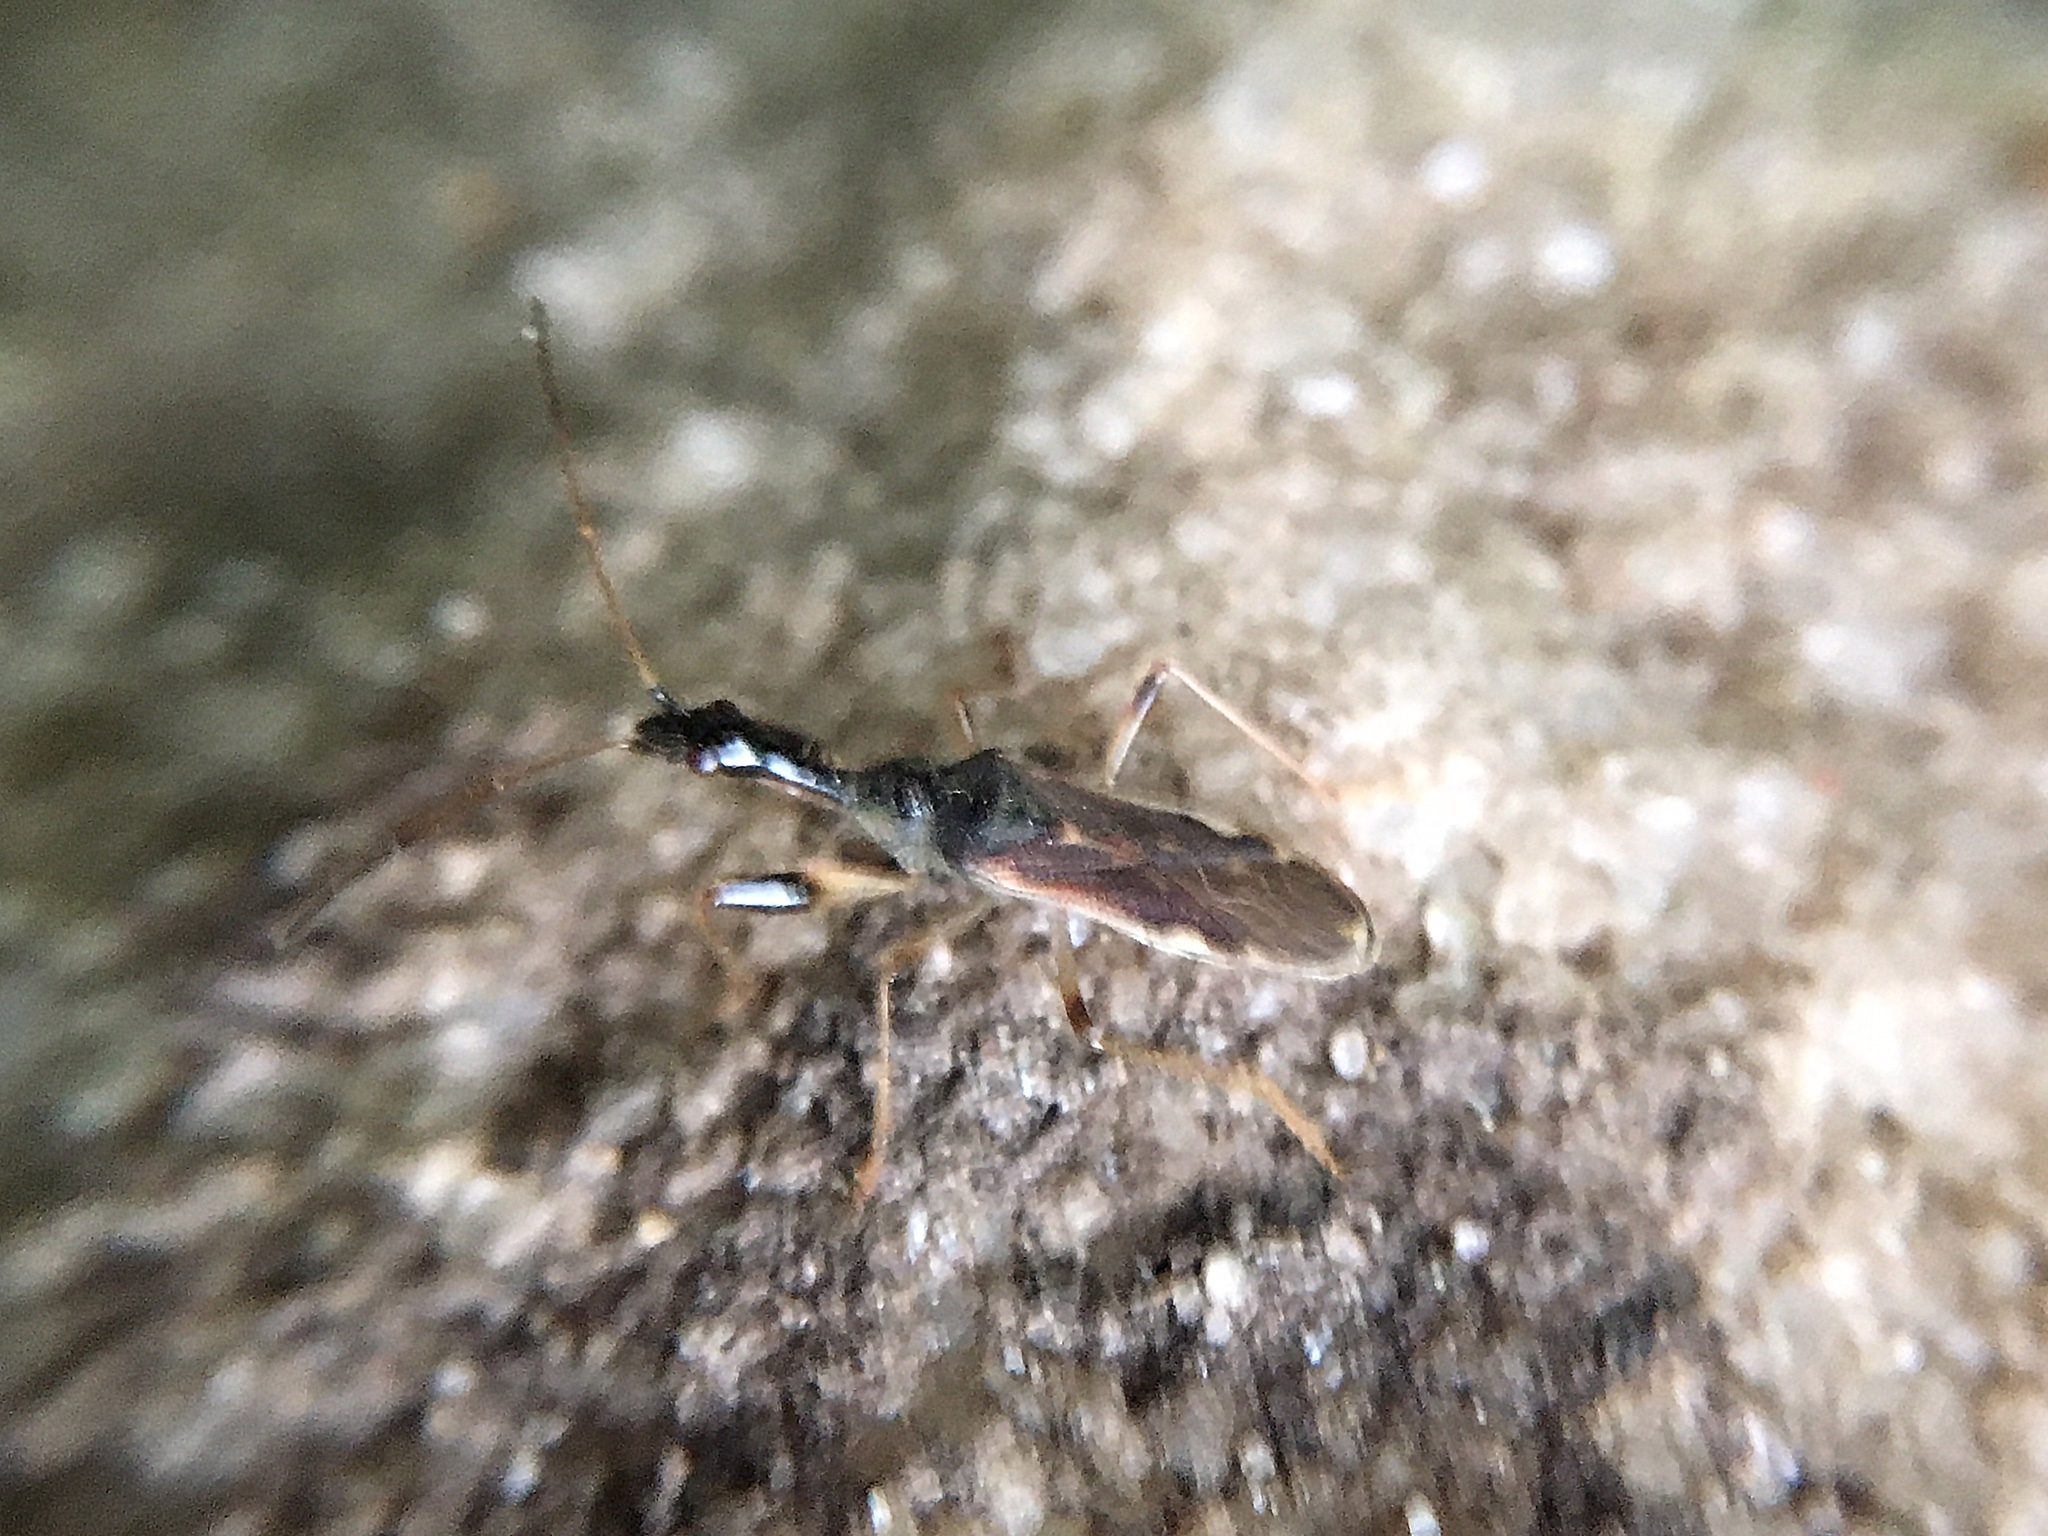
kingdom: Animalia
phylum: Arthropoda
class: Insecta
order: Hemiptera
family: Rhyparochromidae
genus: Myodocha
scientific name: Myodocha serripes
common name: Long-necked seed bug
